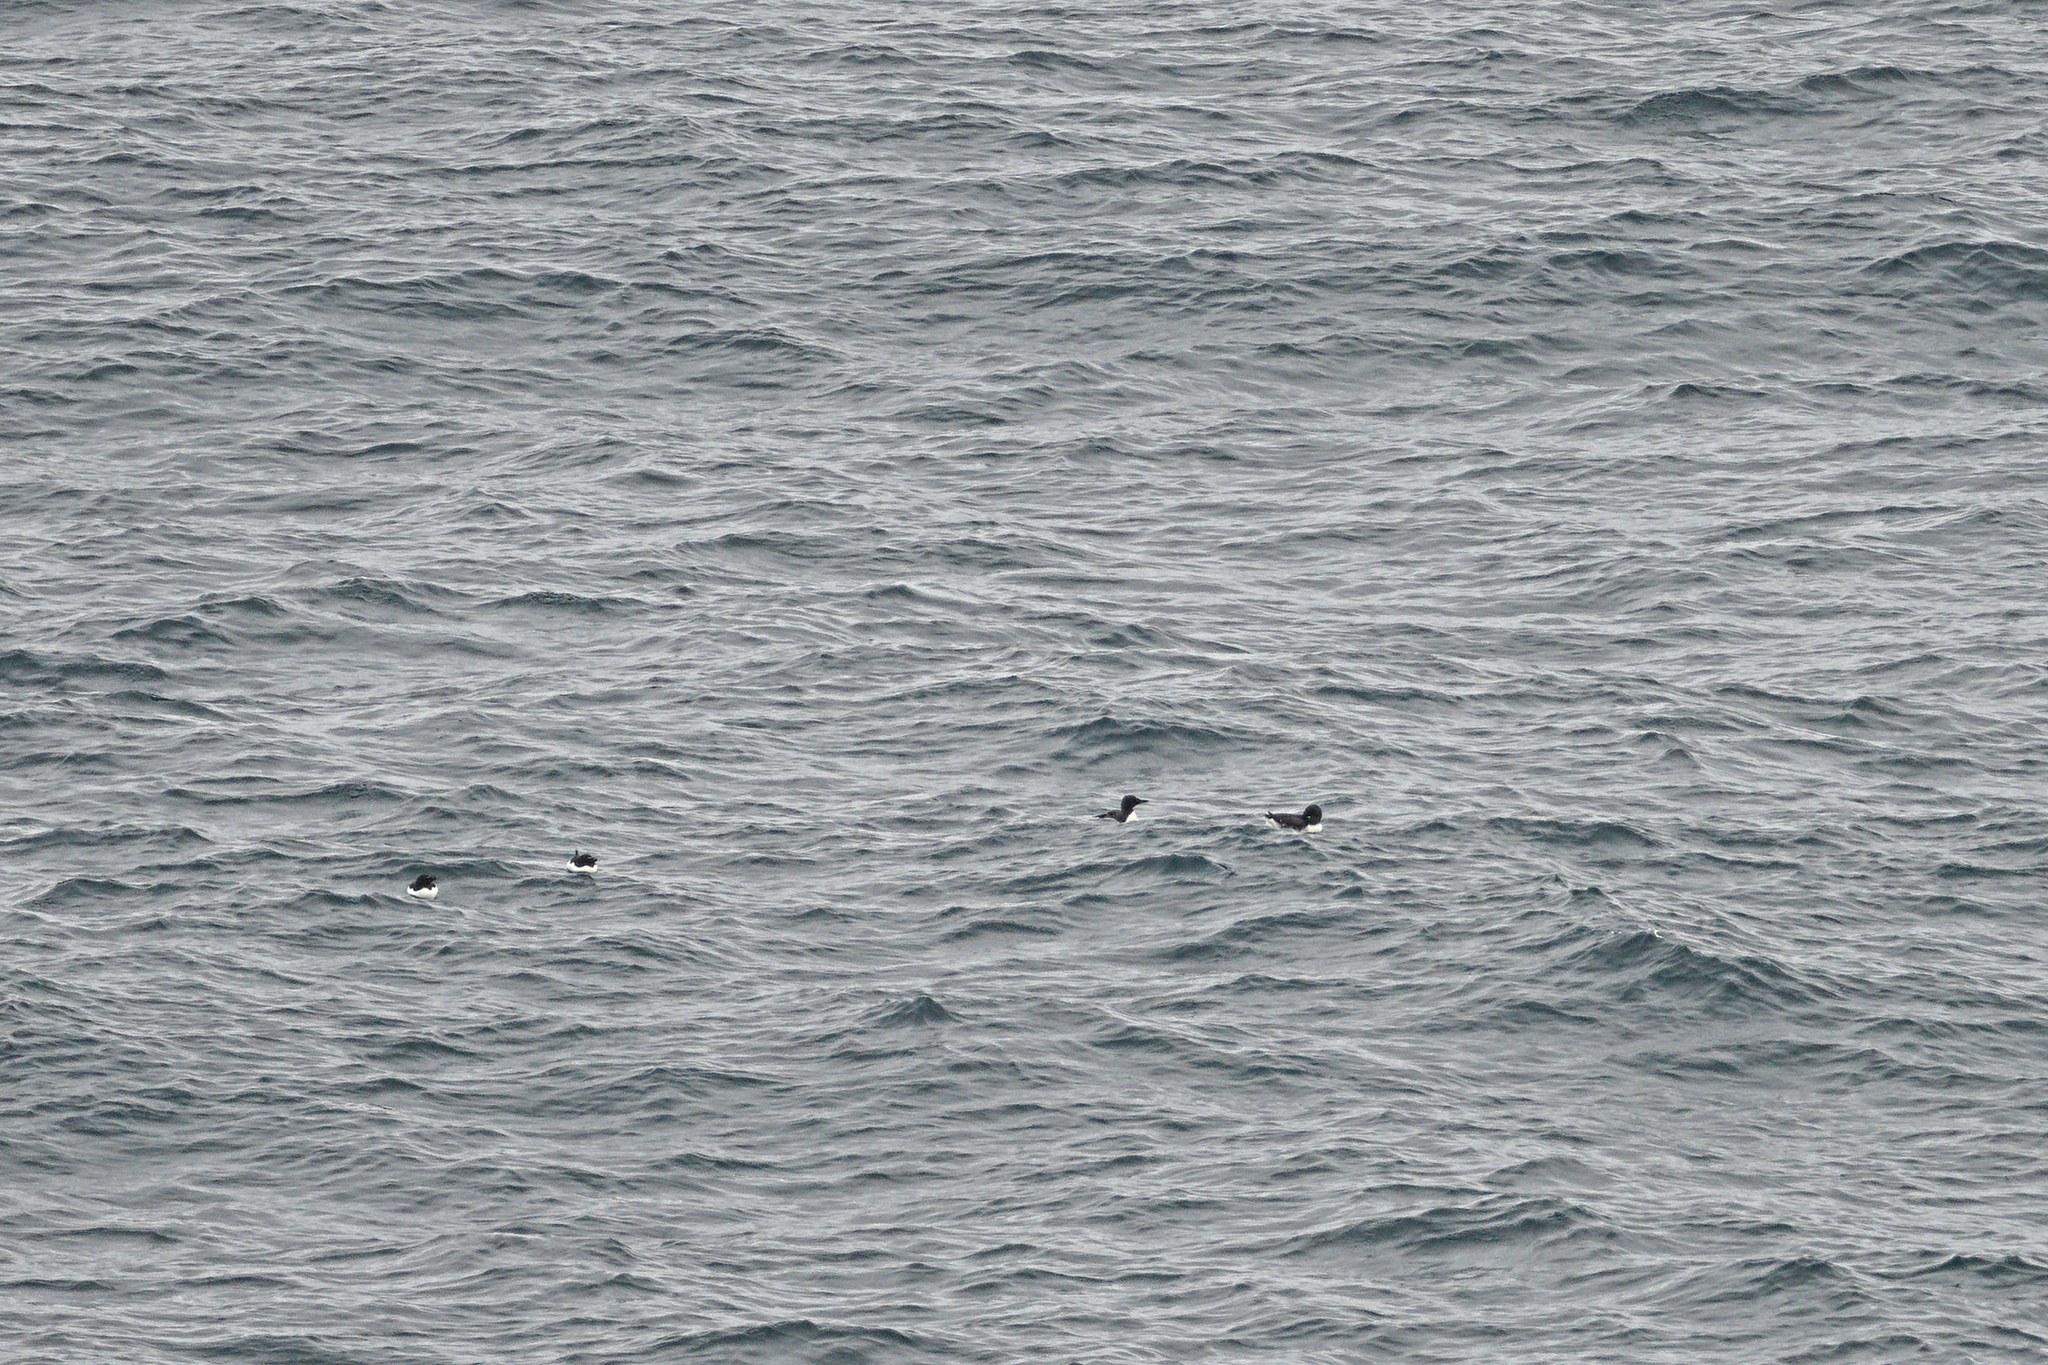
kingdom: Animalia
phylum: Chordata
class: Aves
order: Charadriiformes
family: Alcidae
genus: Alca
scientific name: Alca torda
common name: Razorbill
